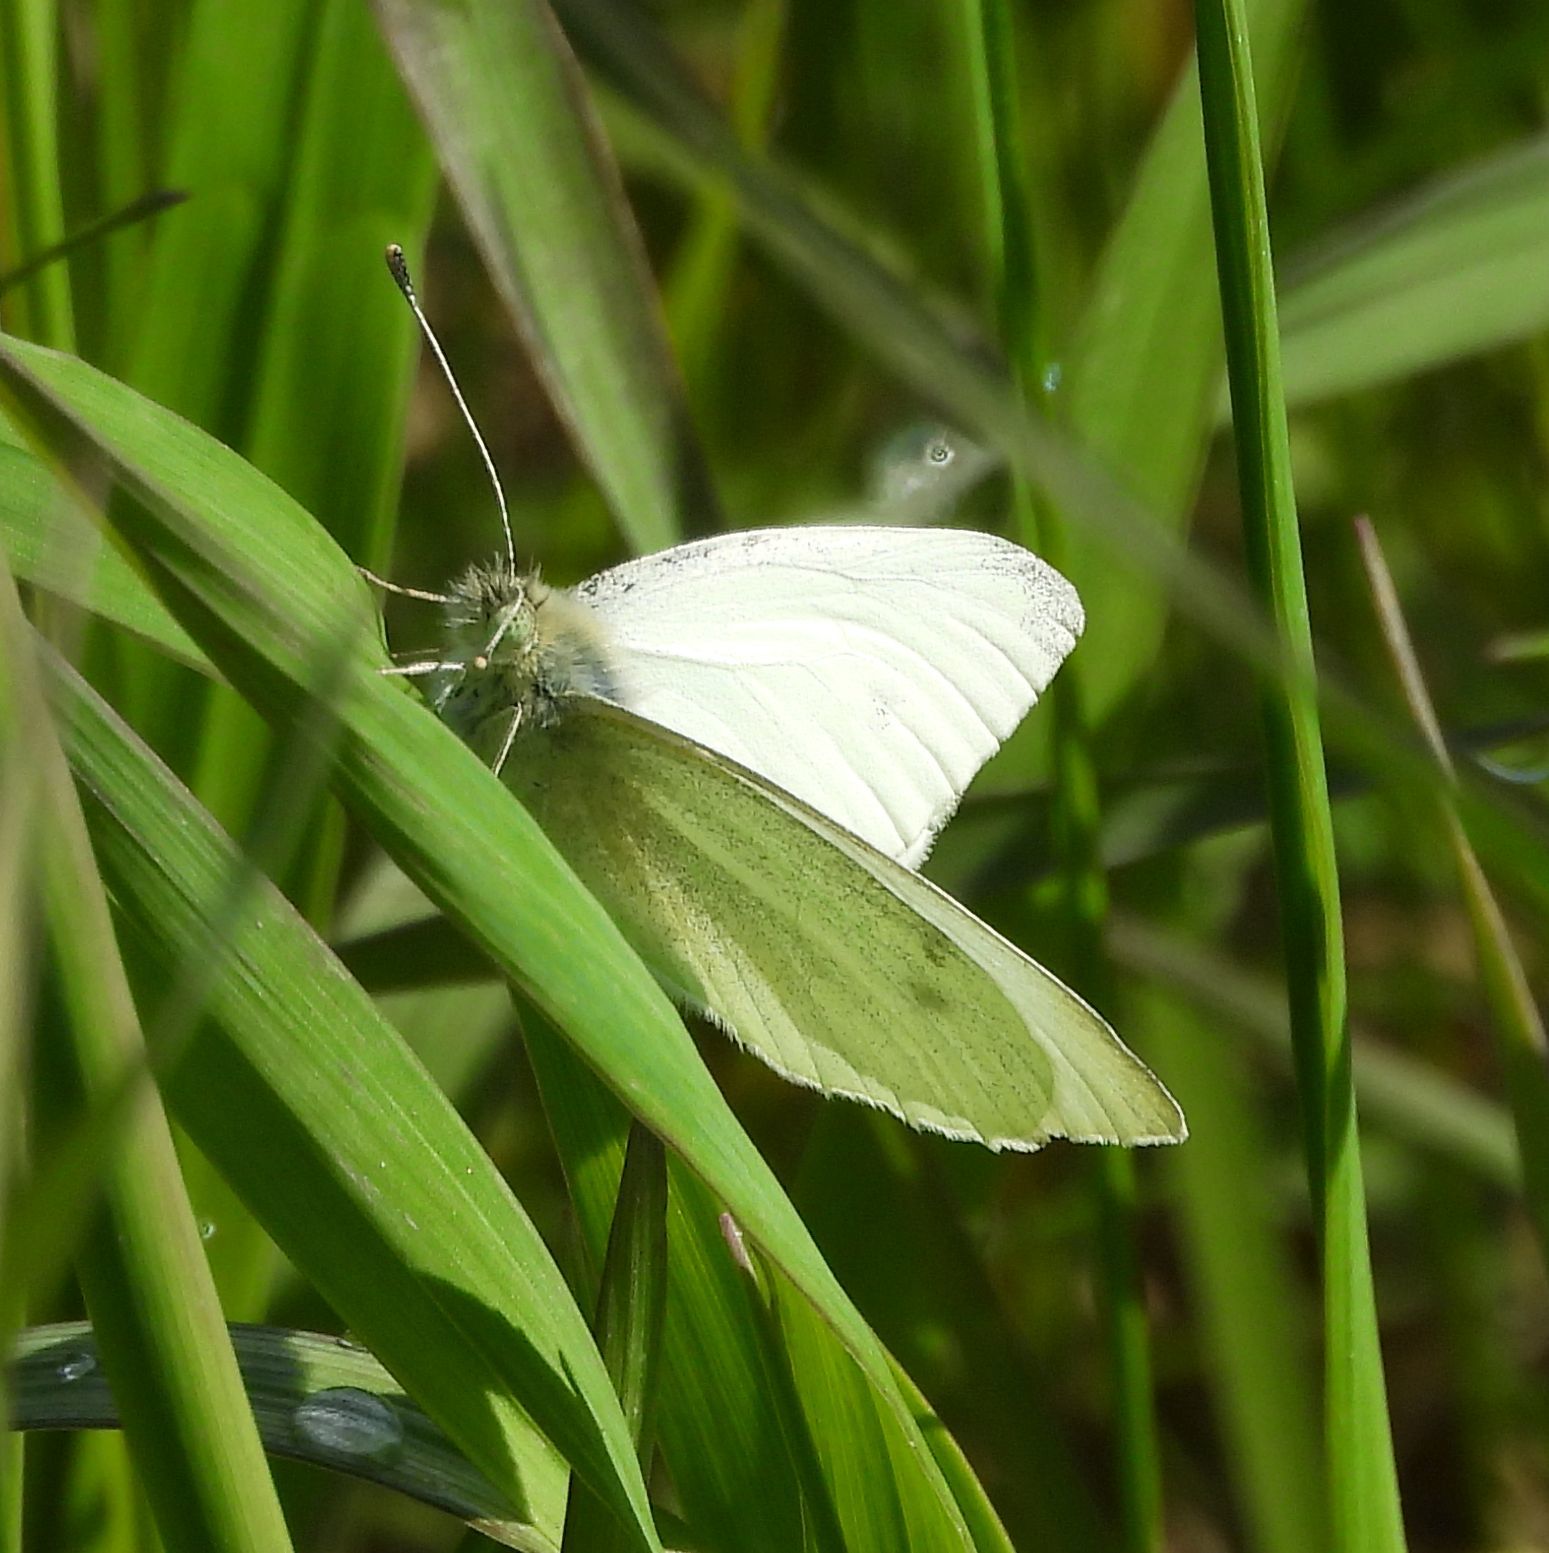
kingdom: Animalia
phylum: Arthropoda
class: Insecta
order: Lepidoptera
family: Pieridae
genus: Pieris
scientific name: Pieris rapae
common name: Small white
